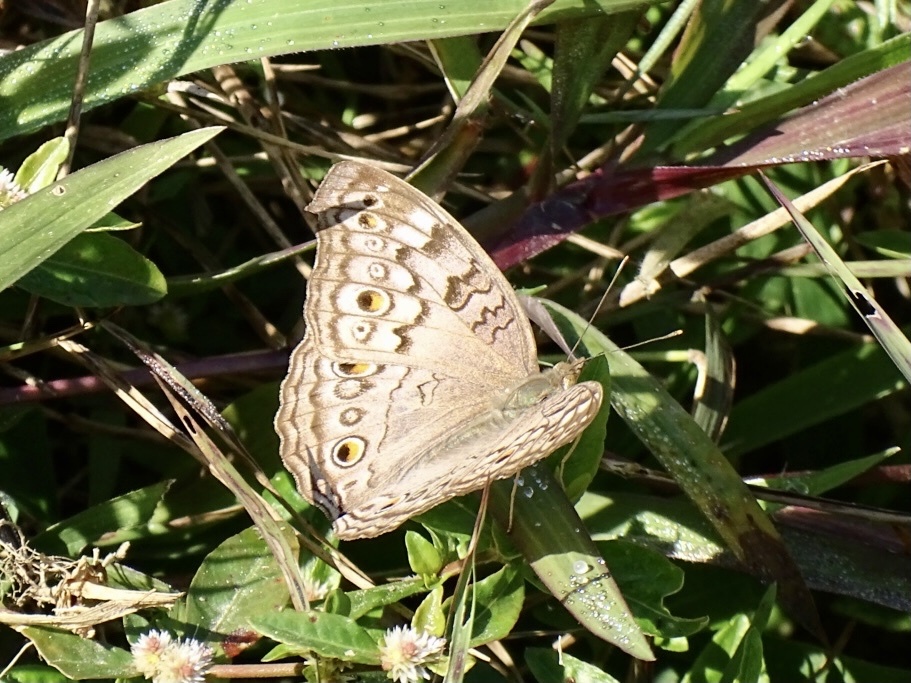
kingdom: Animalia
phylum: Arthropoda
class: Insecta
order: Lepidoptera
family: Nymphalidae
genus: Junonia
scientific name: Junonia atlites
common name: Grey pansy
